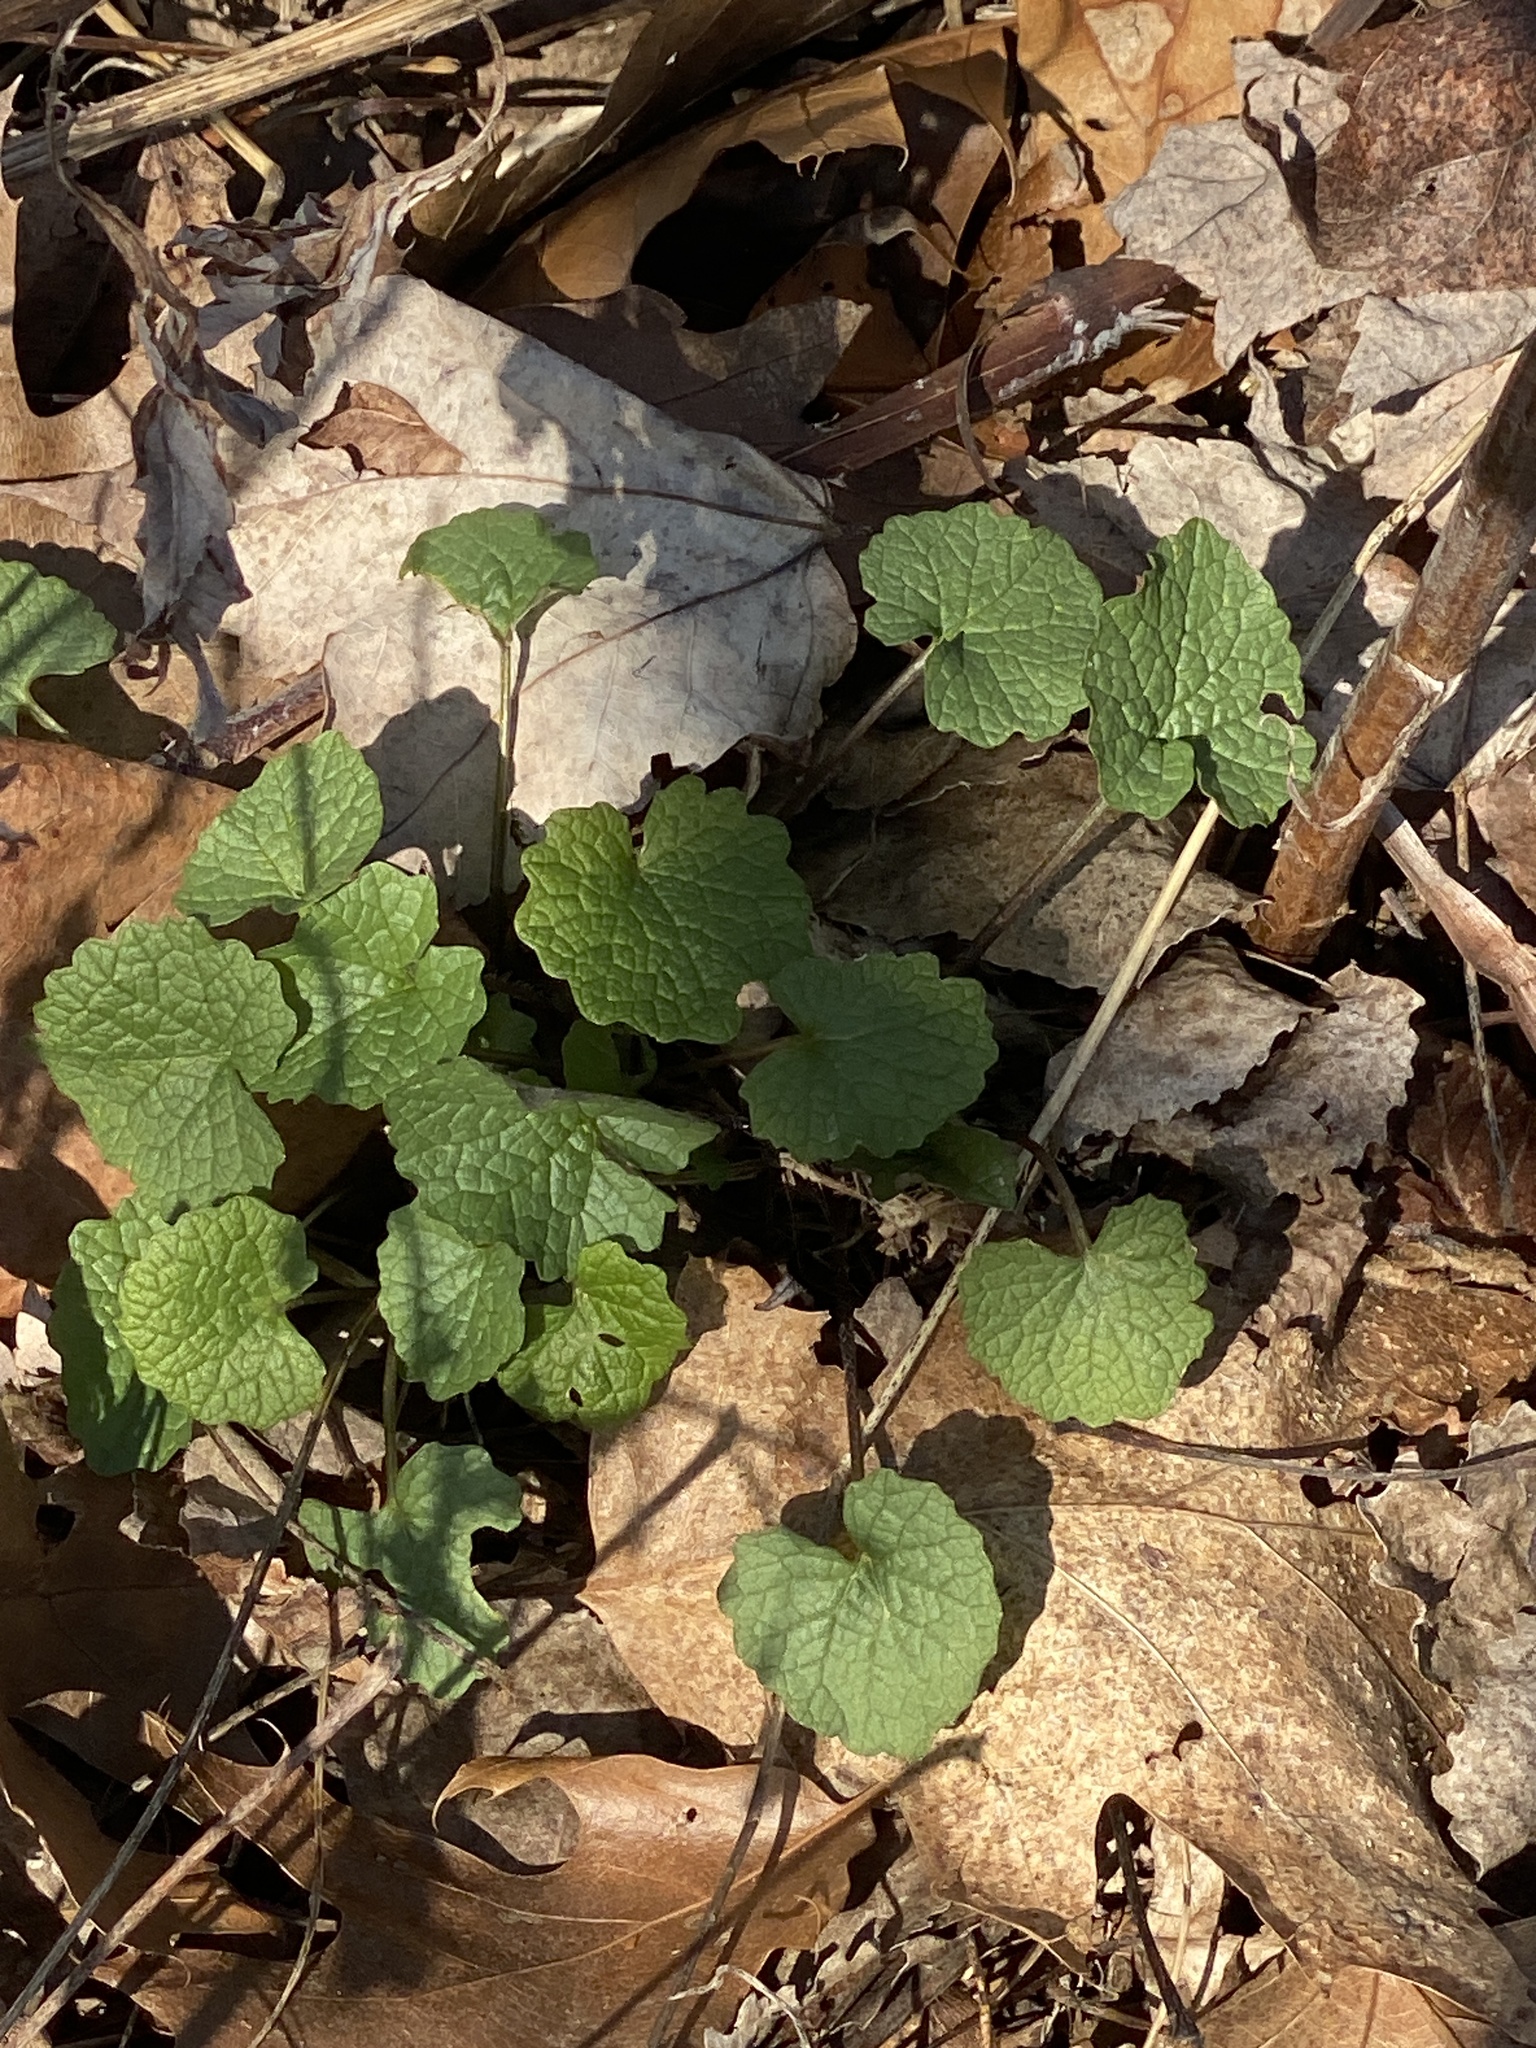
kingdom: Plantae
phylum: Tracheophyta
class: Magnoliopsida
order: Brassicales
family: Brassicaceae
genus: Alliaria
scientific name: Alliaria petiolata
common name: Garlic mustard
